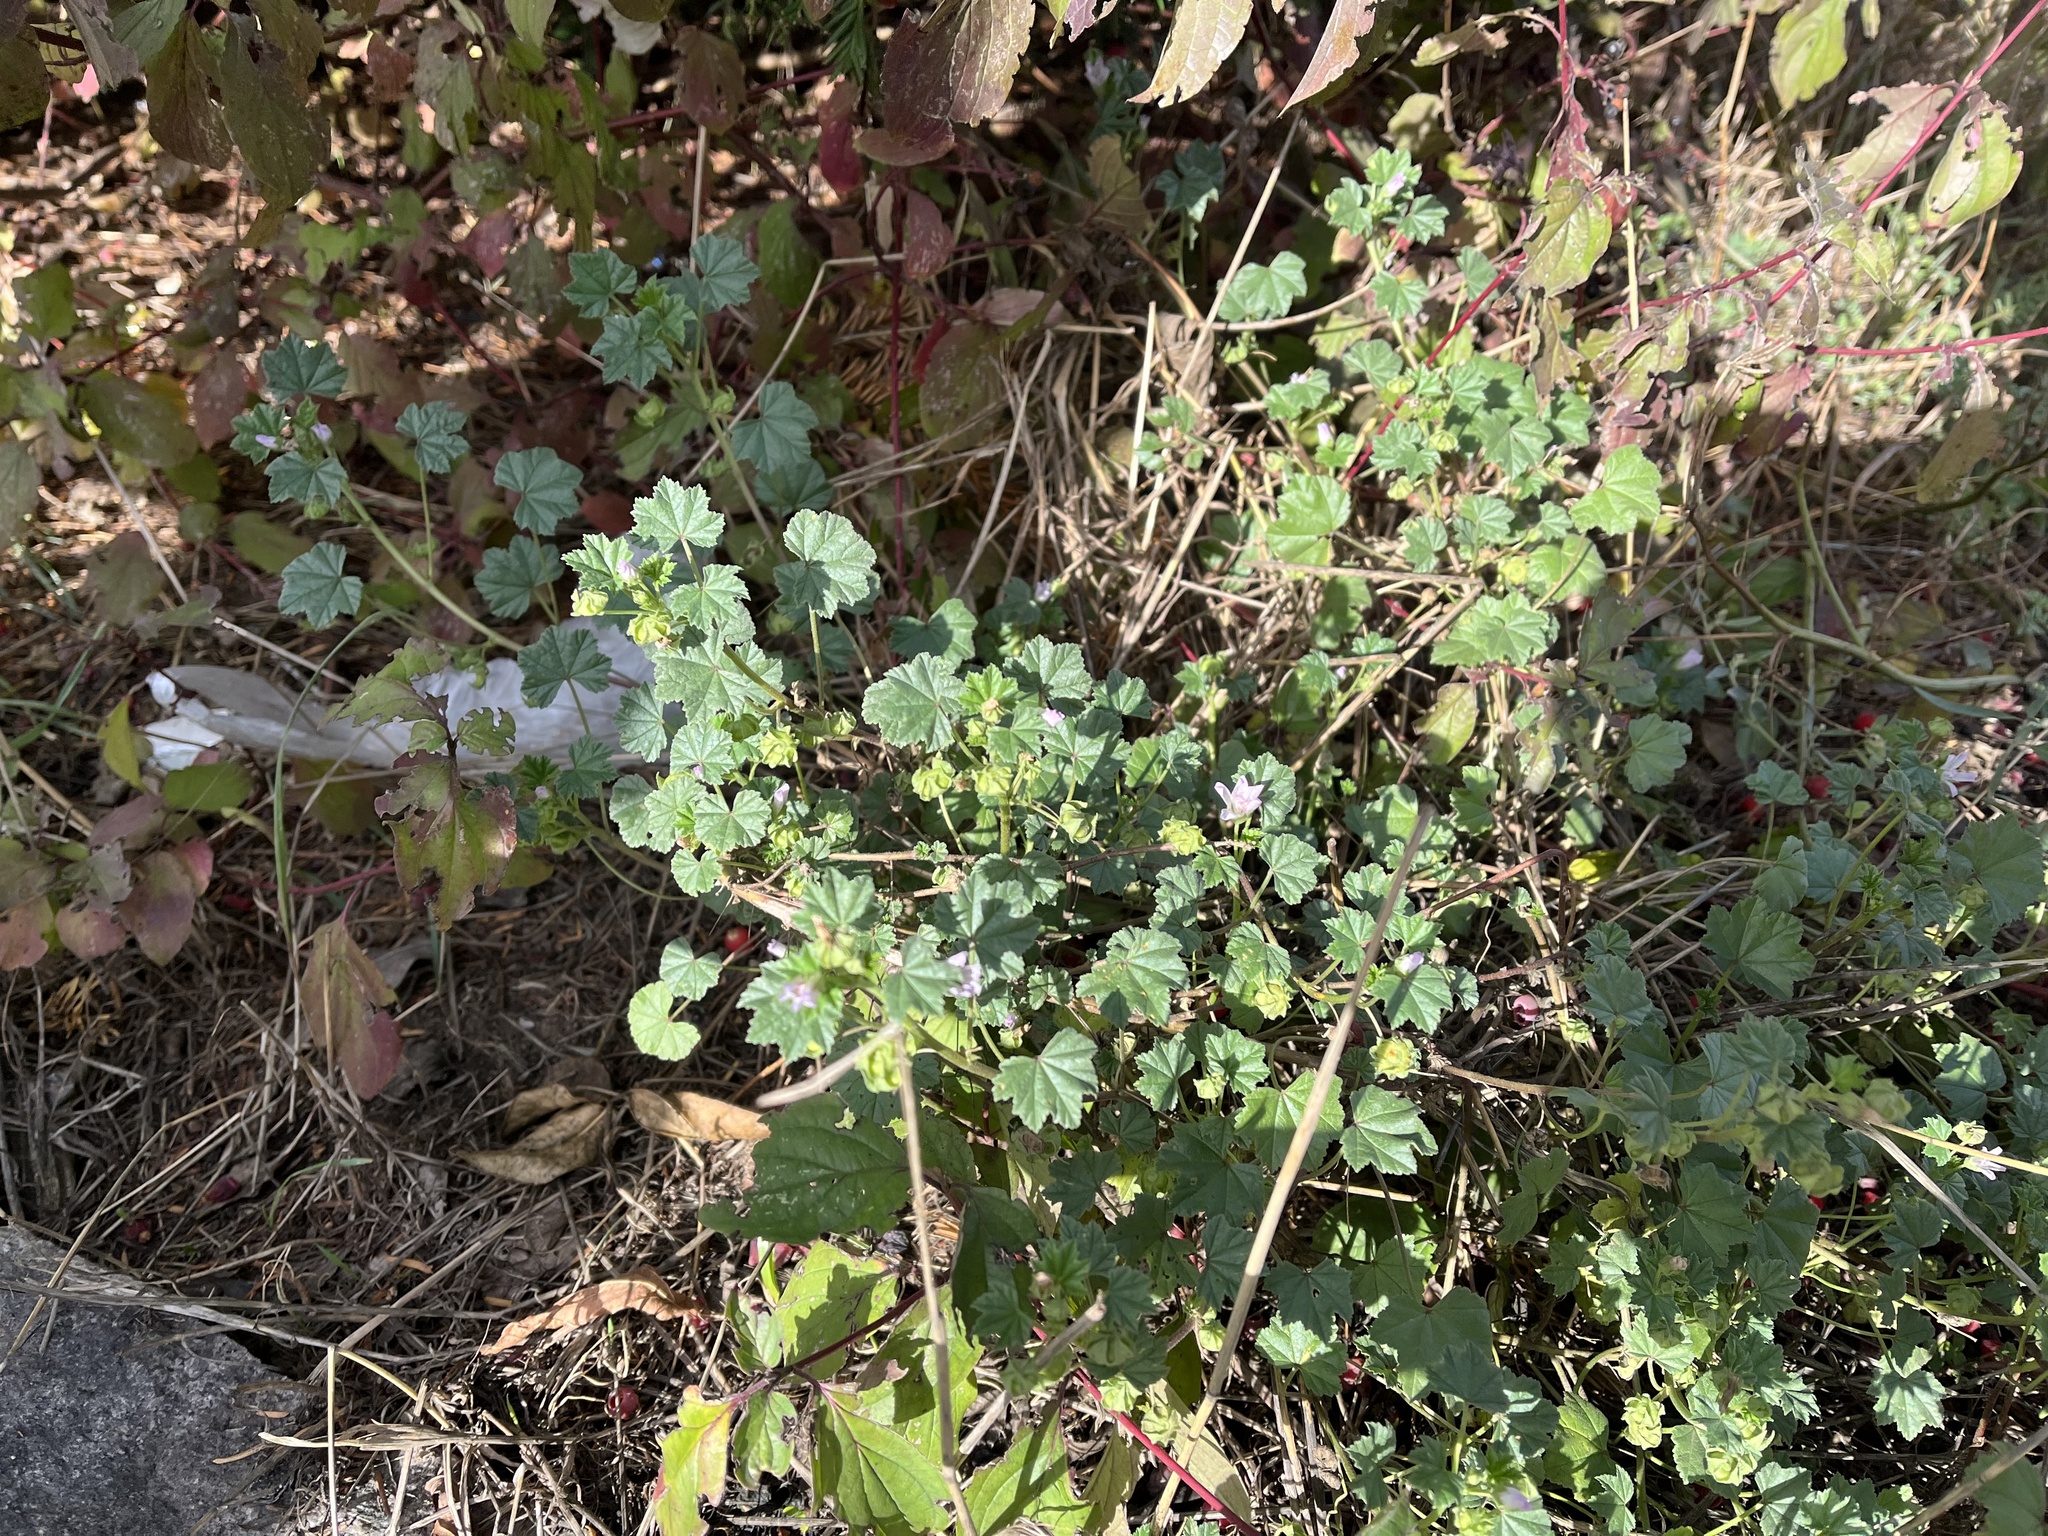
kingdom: Plantae
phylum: Tracheophyta
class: Magnoliopsida
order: Malvales
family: Malvaceae
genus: Malva
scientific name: Malva neglecta
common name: Common mallow
